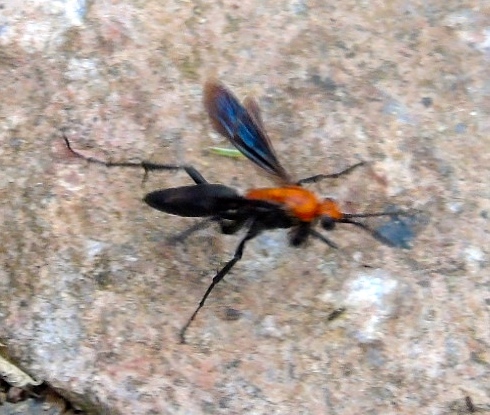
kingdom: Animalia
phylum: Arthropoda
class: Insecta
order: Hymenoptera
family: Pompilidae
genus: Notocyphus
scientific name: Notocyphus dorsalis
